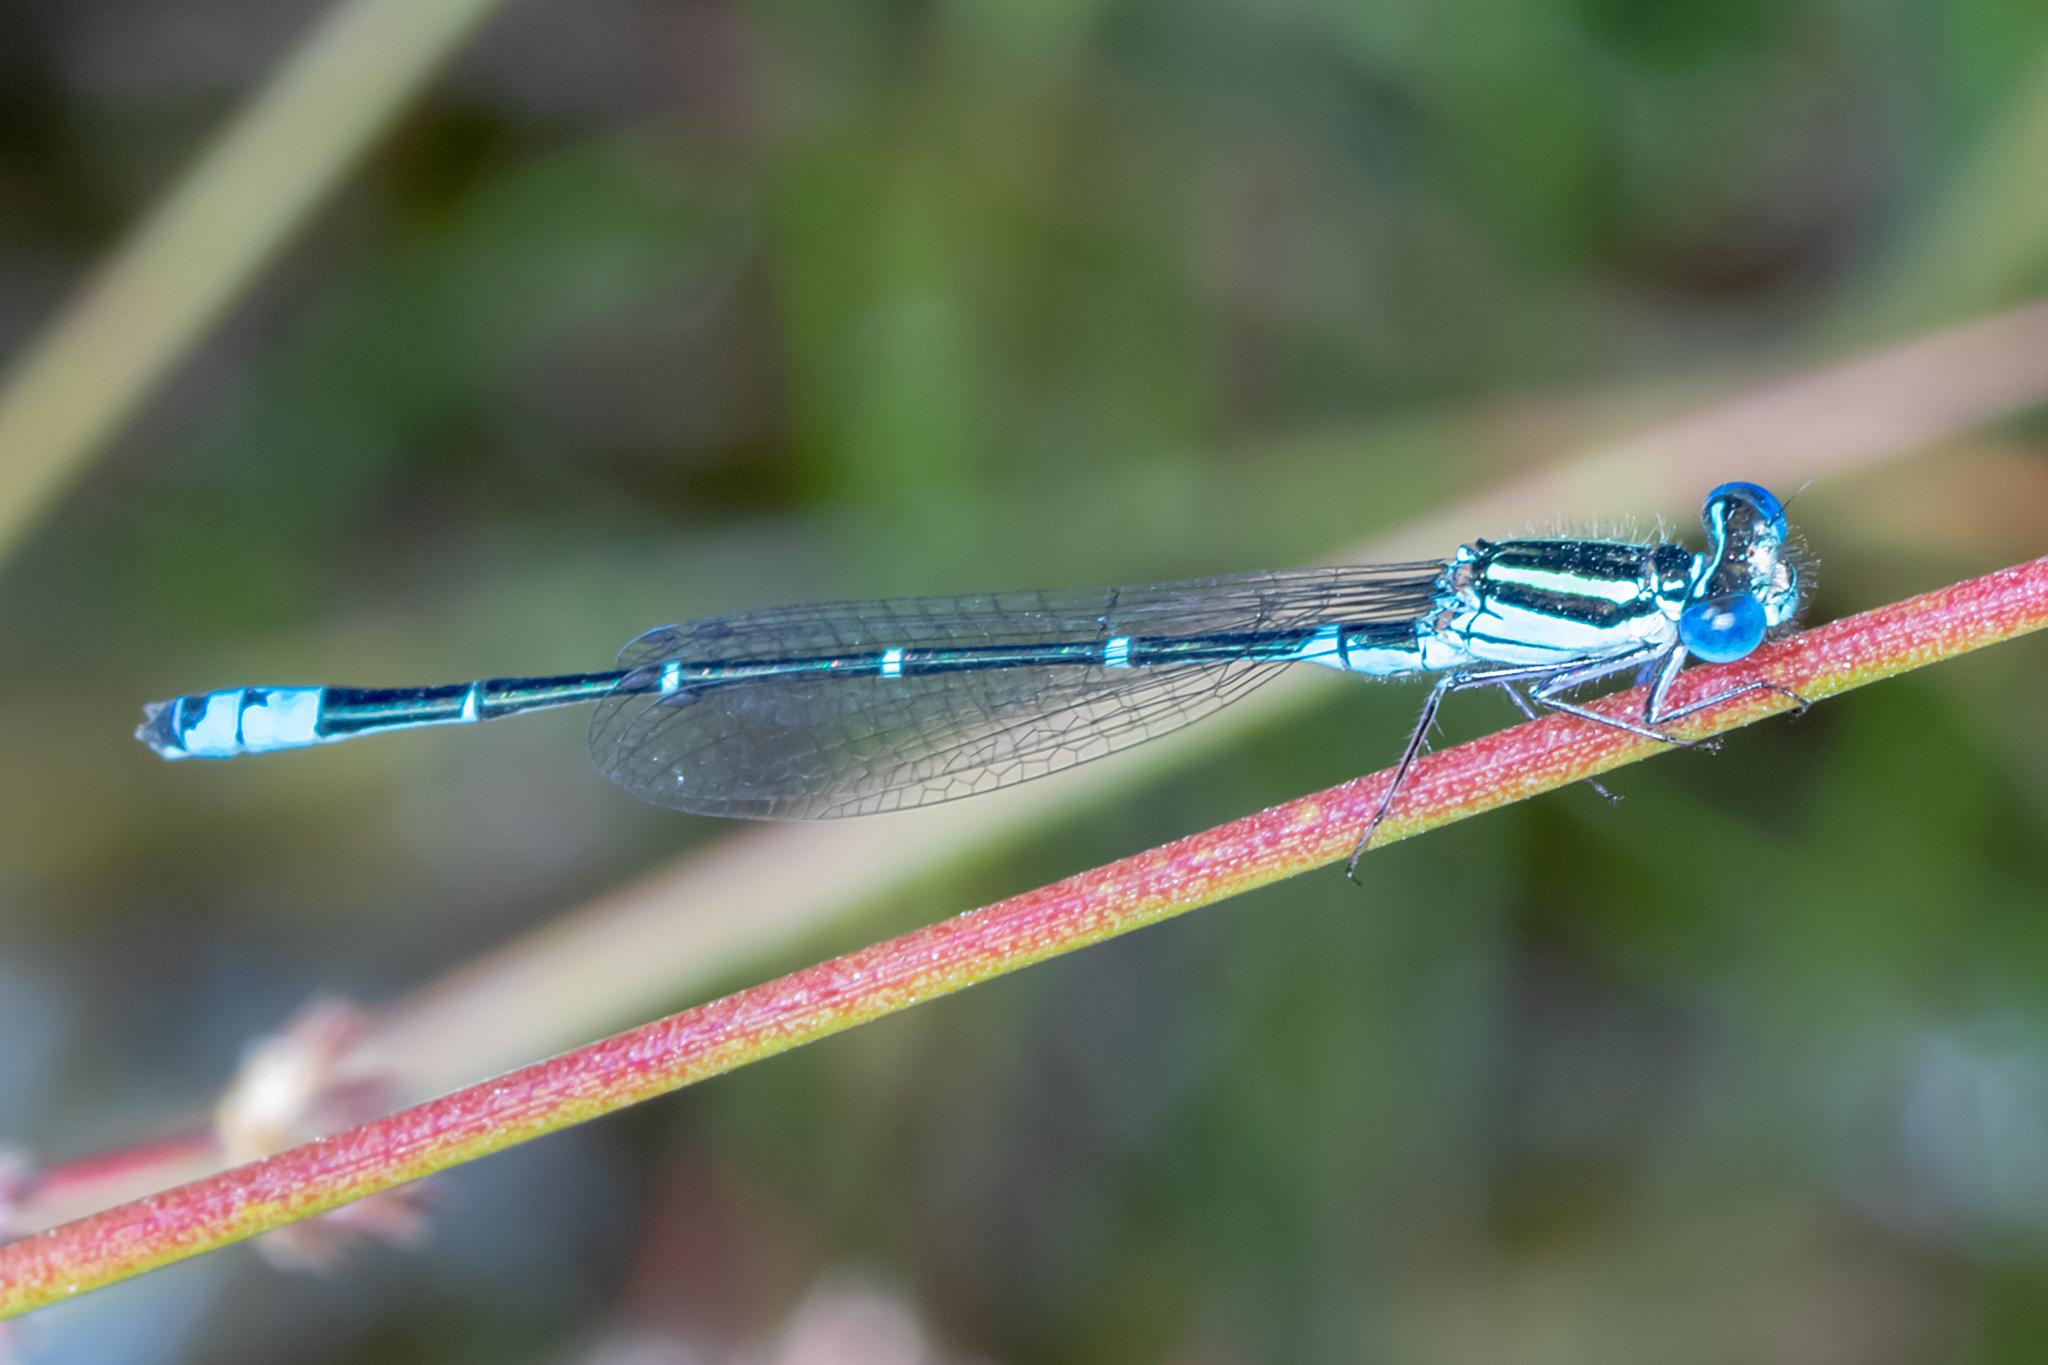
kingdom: Animalia
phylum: Arthropoda
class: Insecta
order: Odonata
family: Coenagrionidae
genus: Austroagrion
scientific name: Austroagrion watsoni
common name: Eastern billabongfly
